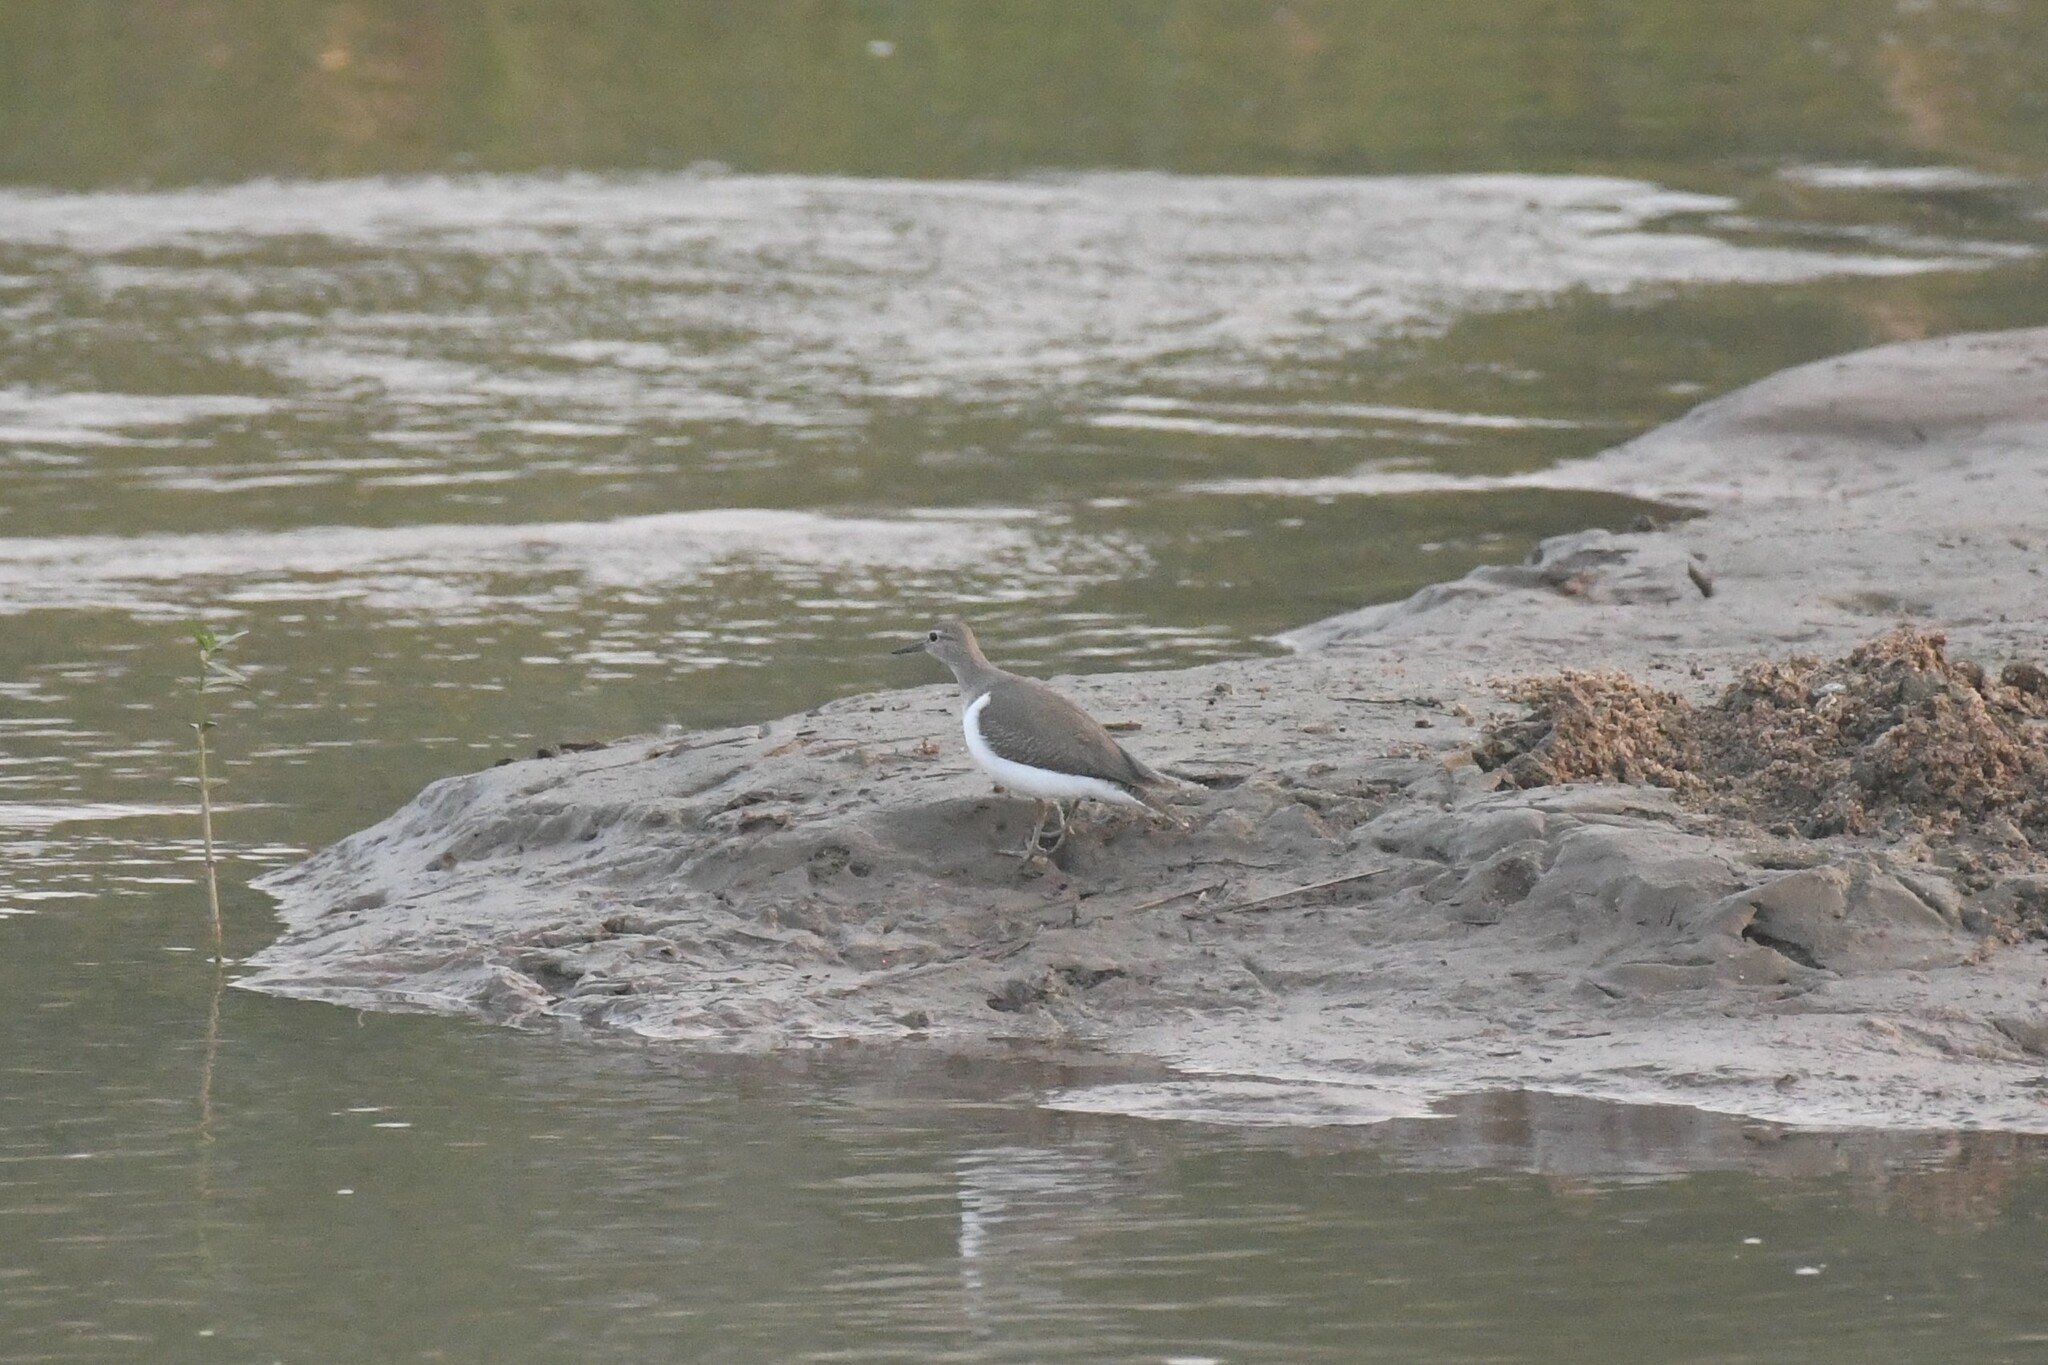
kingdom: Animalia
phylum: Chordata
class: Aves
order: Charadriiformes
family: Scolopacidae
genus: Actitis
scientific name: Actitis hypoleucos
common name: Common sandpiper
